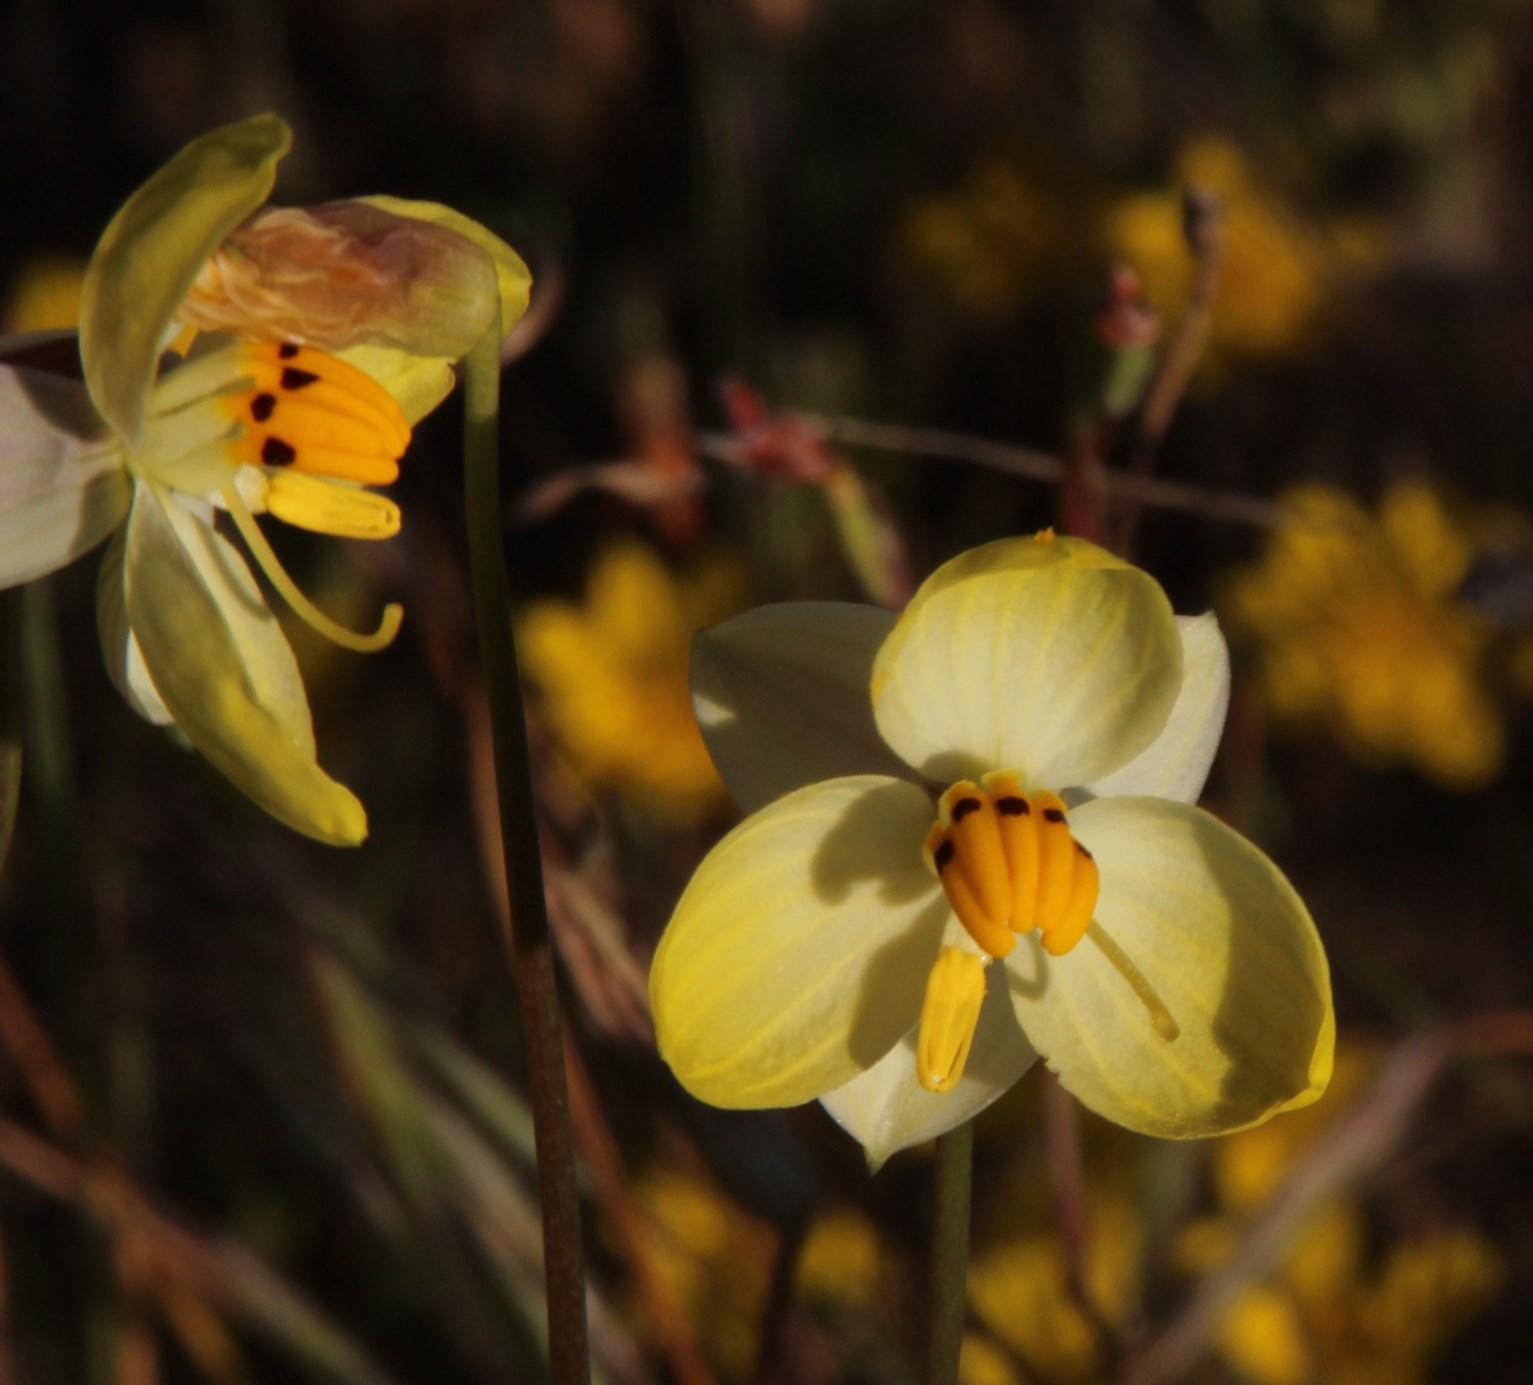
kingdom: Plantae
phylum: Tracheophyta
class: Liliopsida
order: Asparagales
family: Tecophilaeaceae
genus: Cyanella
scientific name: Cyanella alba
